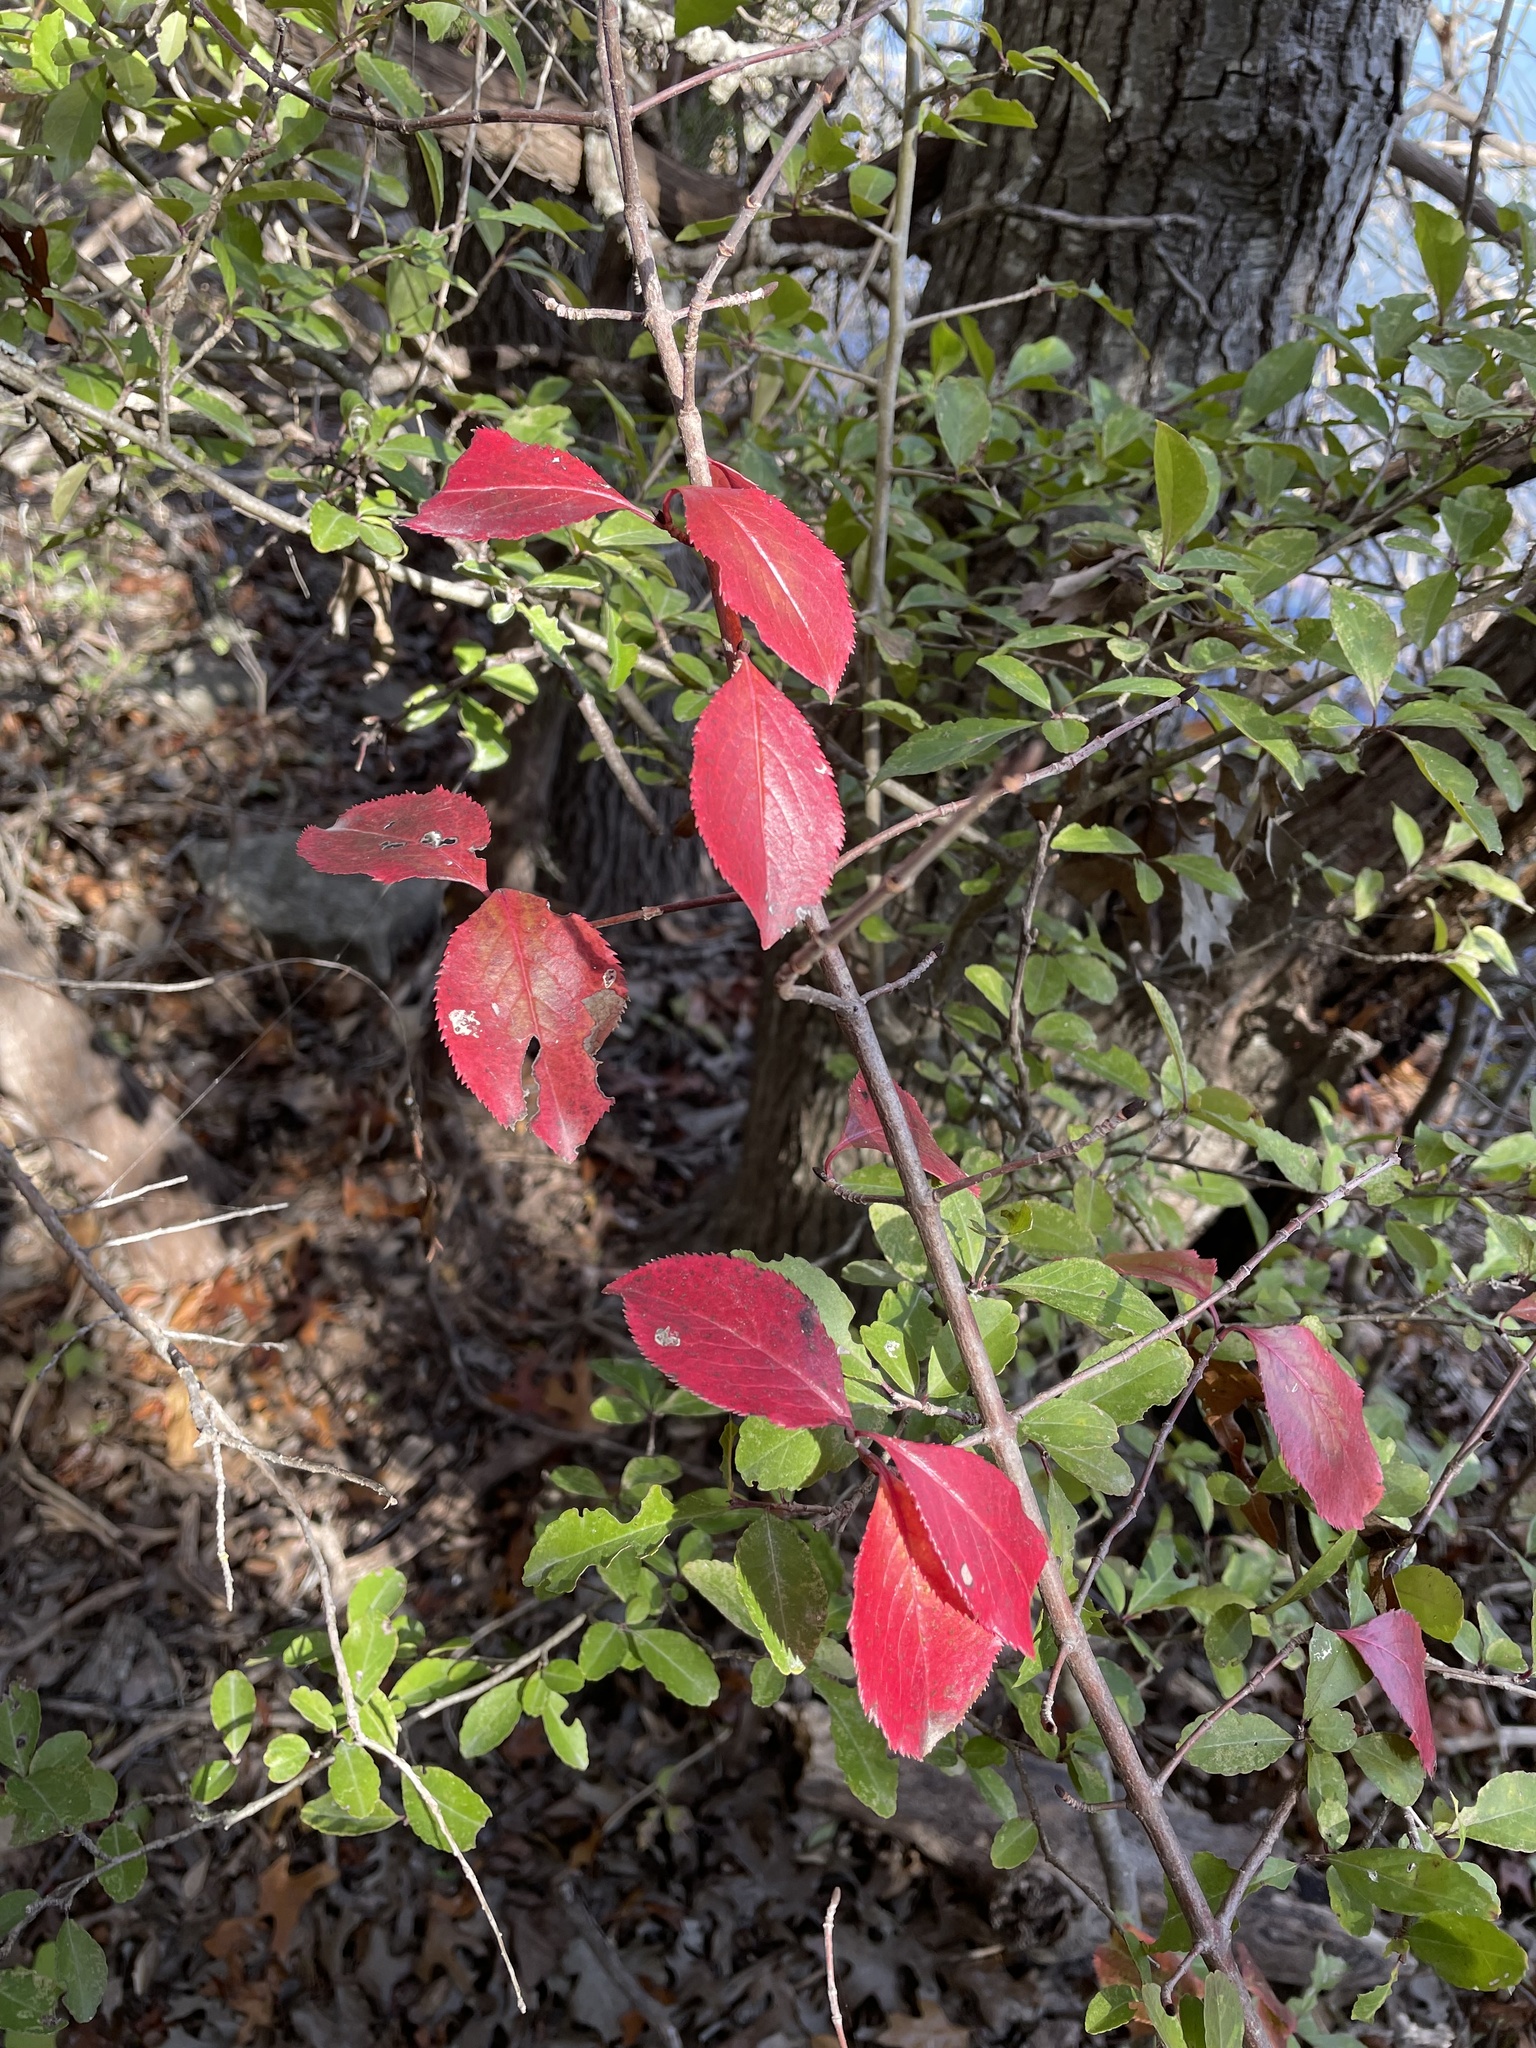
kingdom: Plantae
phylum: Tracheophyta
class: Magnoliopsida
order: Dipsacales
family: Viburnaceae
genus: Viburnum
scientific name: Viburnum rufidulum
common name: Blue haw
